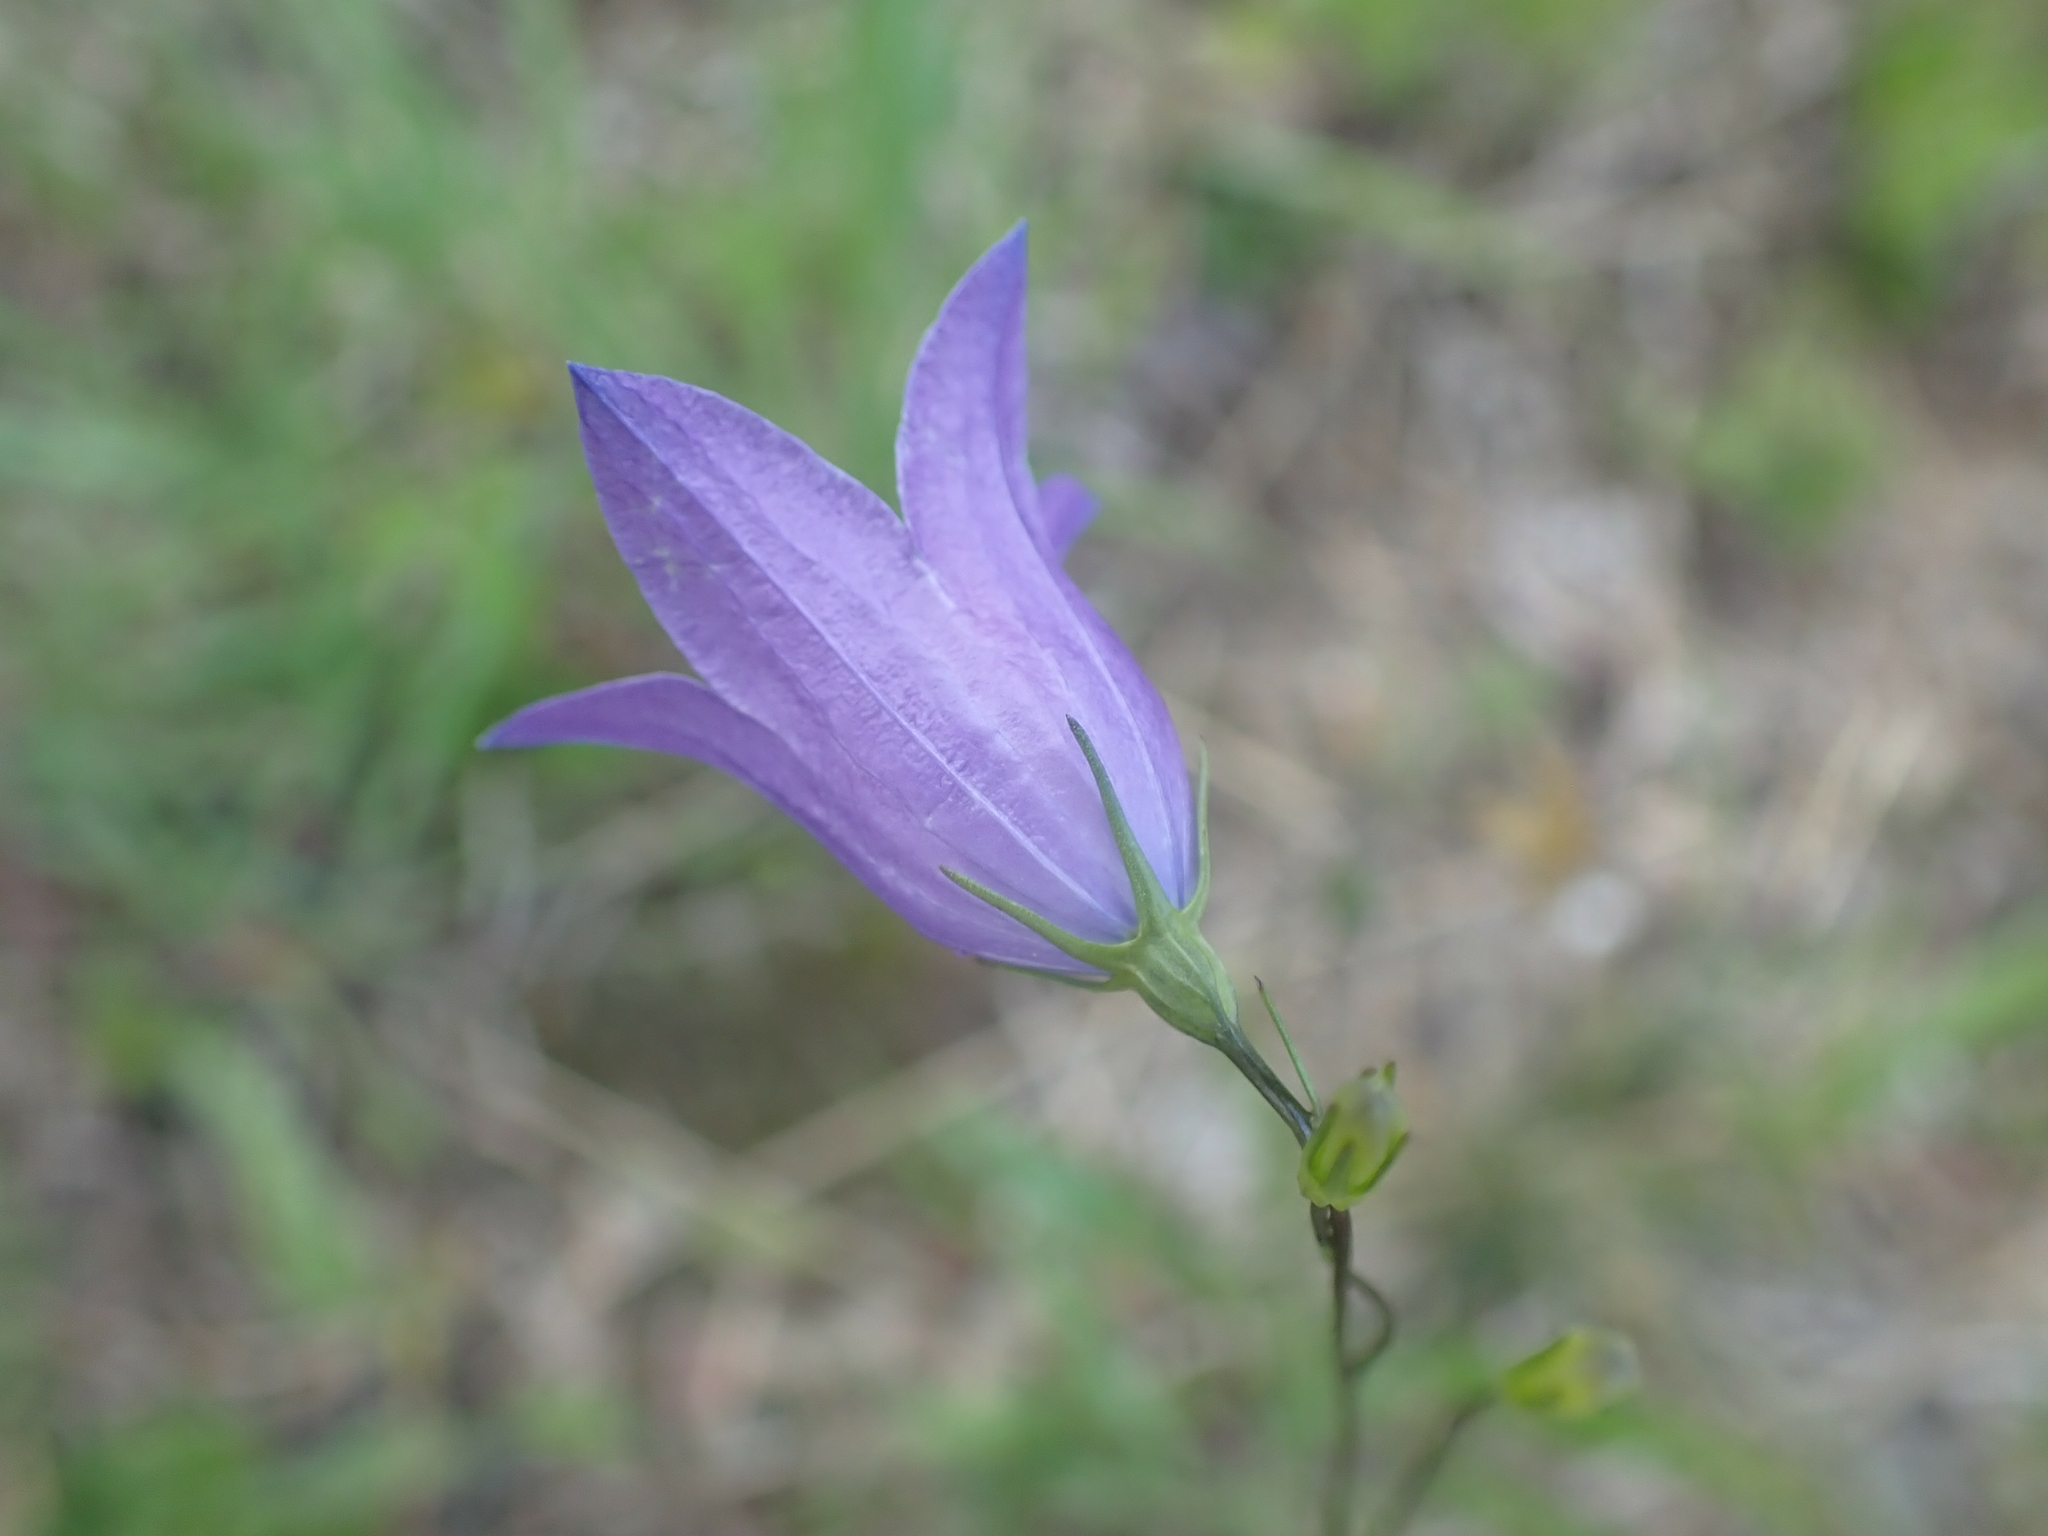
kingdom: Plantae
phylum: Tracheophyta
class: Magnoliopsida
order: Asterales
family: Campanulaceae
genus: Campanula
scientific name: Campanula petiolata
